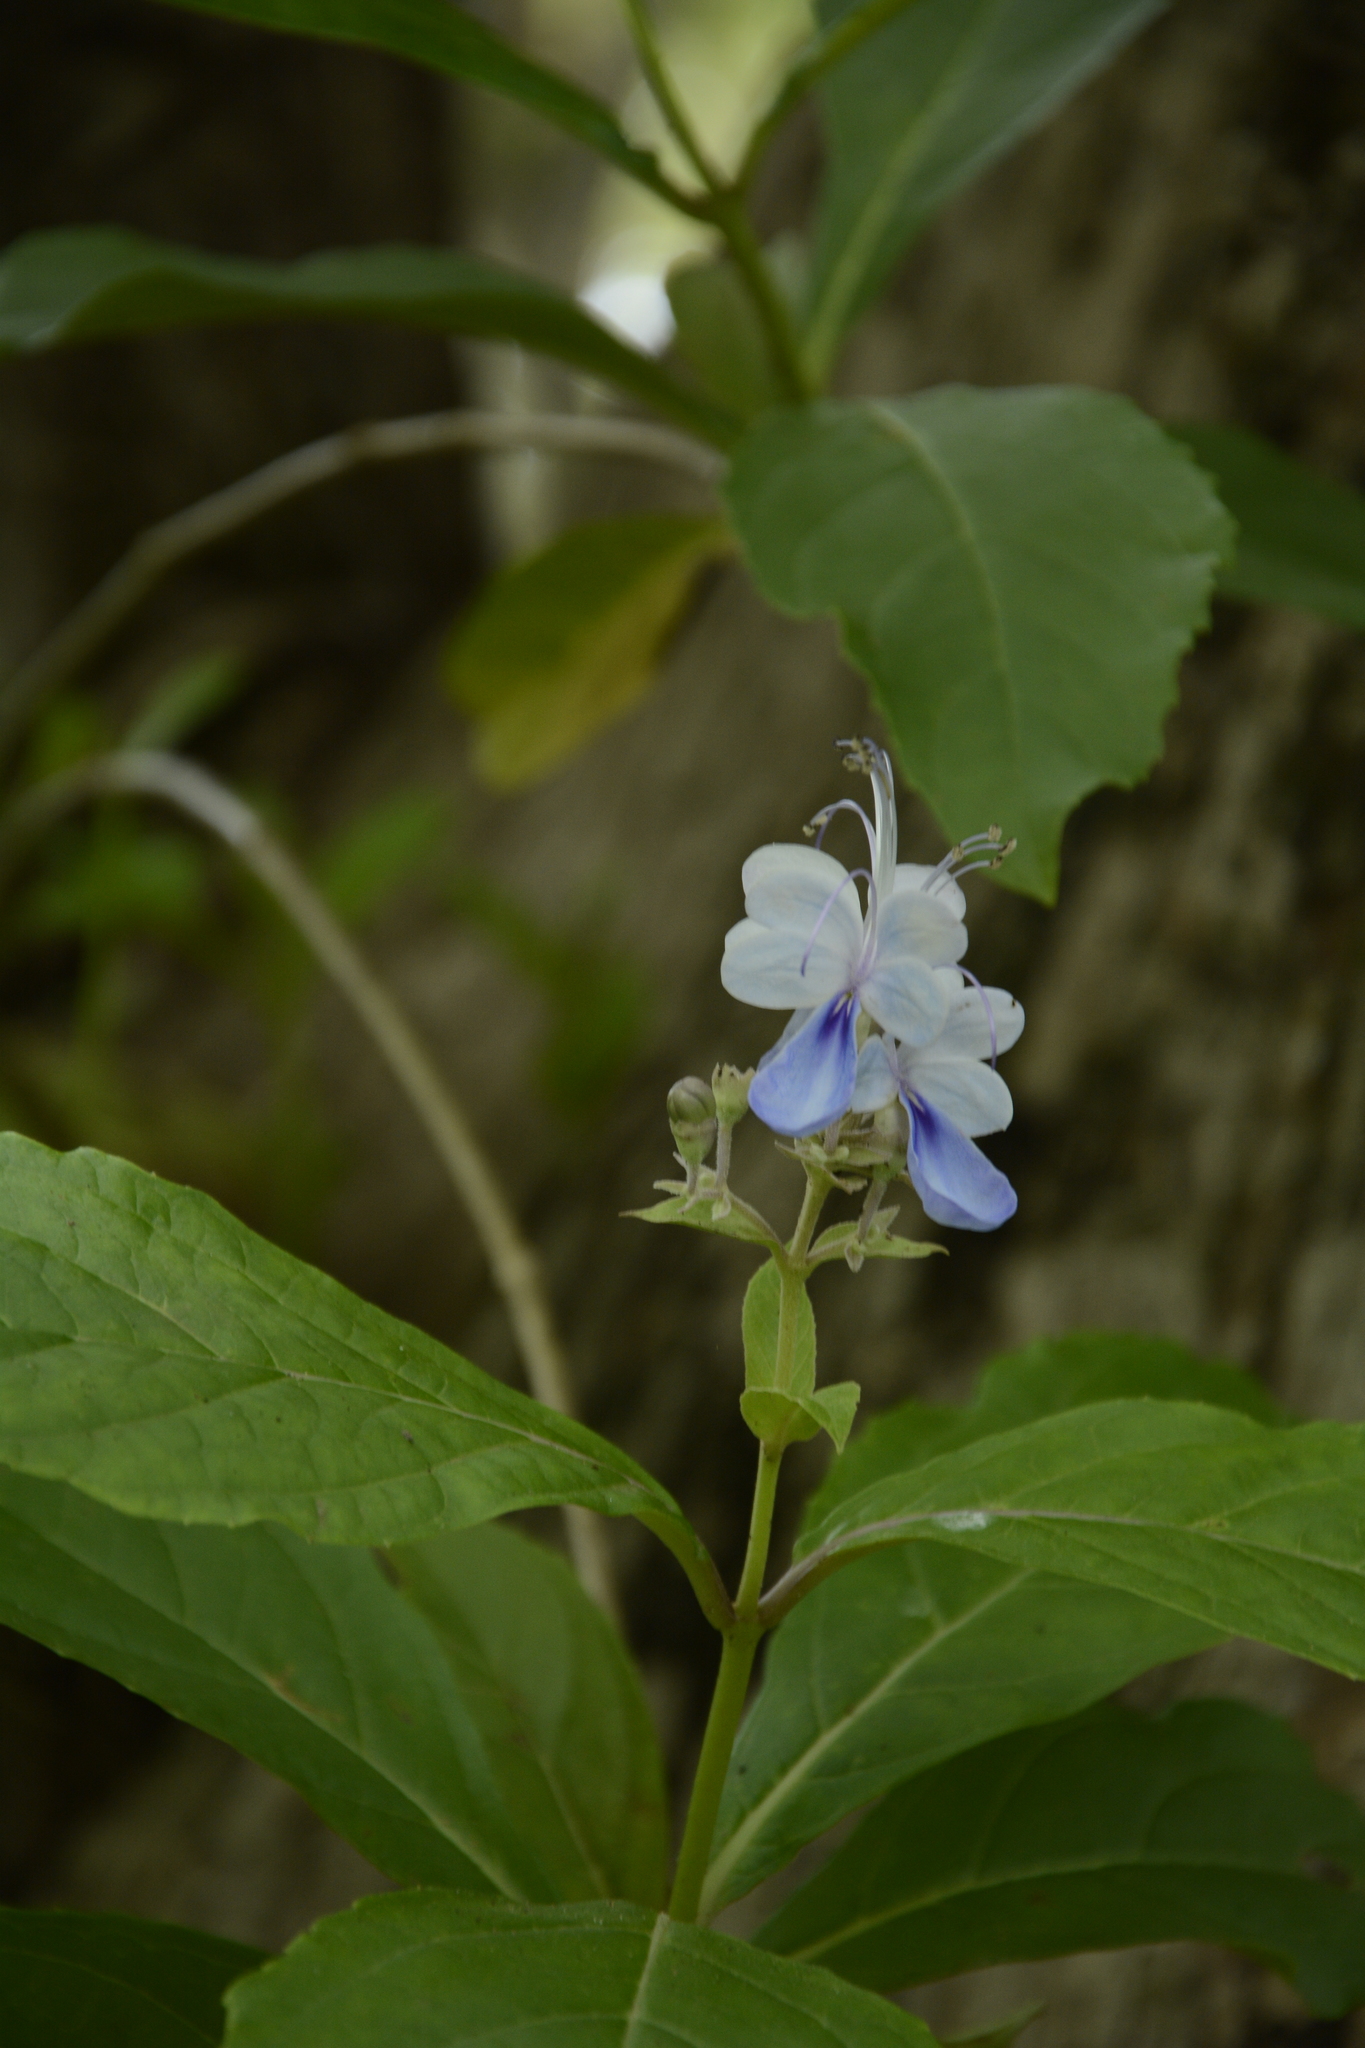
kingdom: Plantae
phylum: Tracheophyta
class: Magnoliopsida
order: Lamiales
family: Lamiaceae
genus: Rotheca
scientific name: Rotheca serrata
